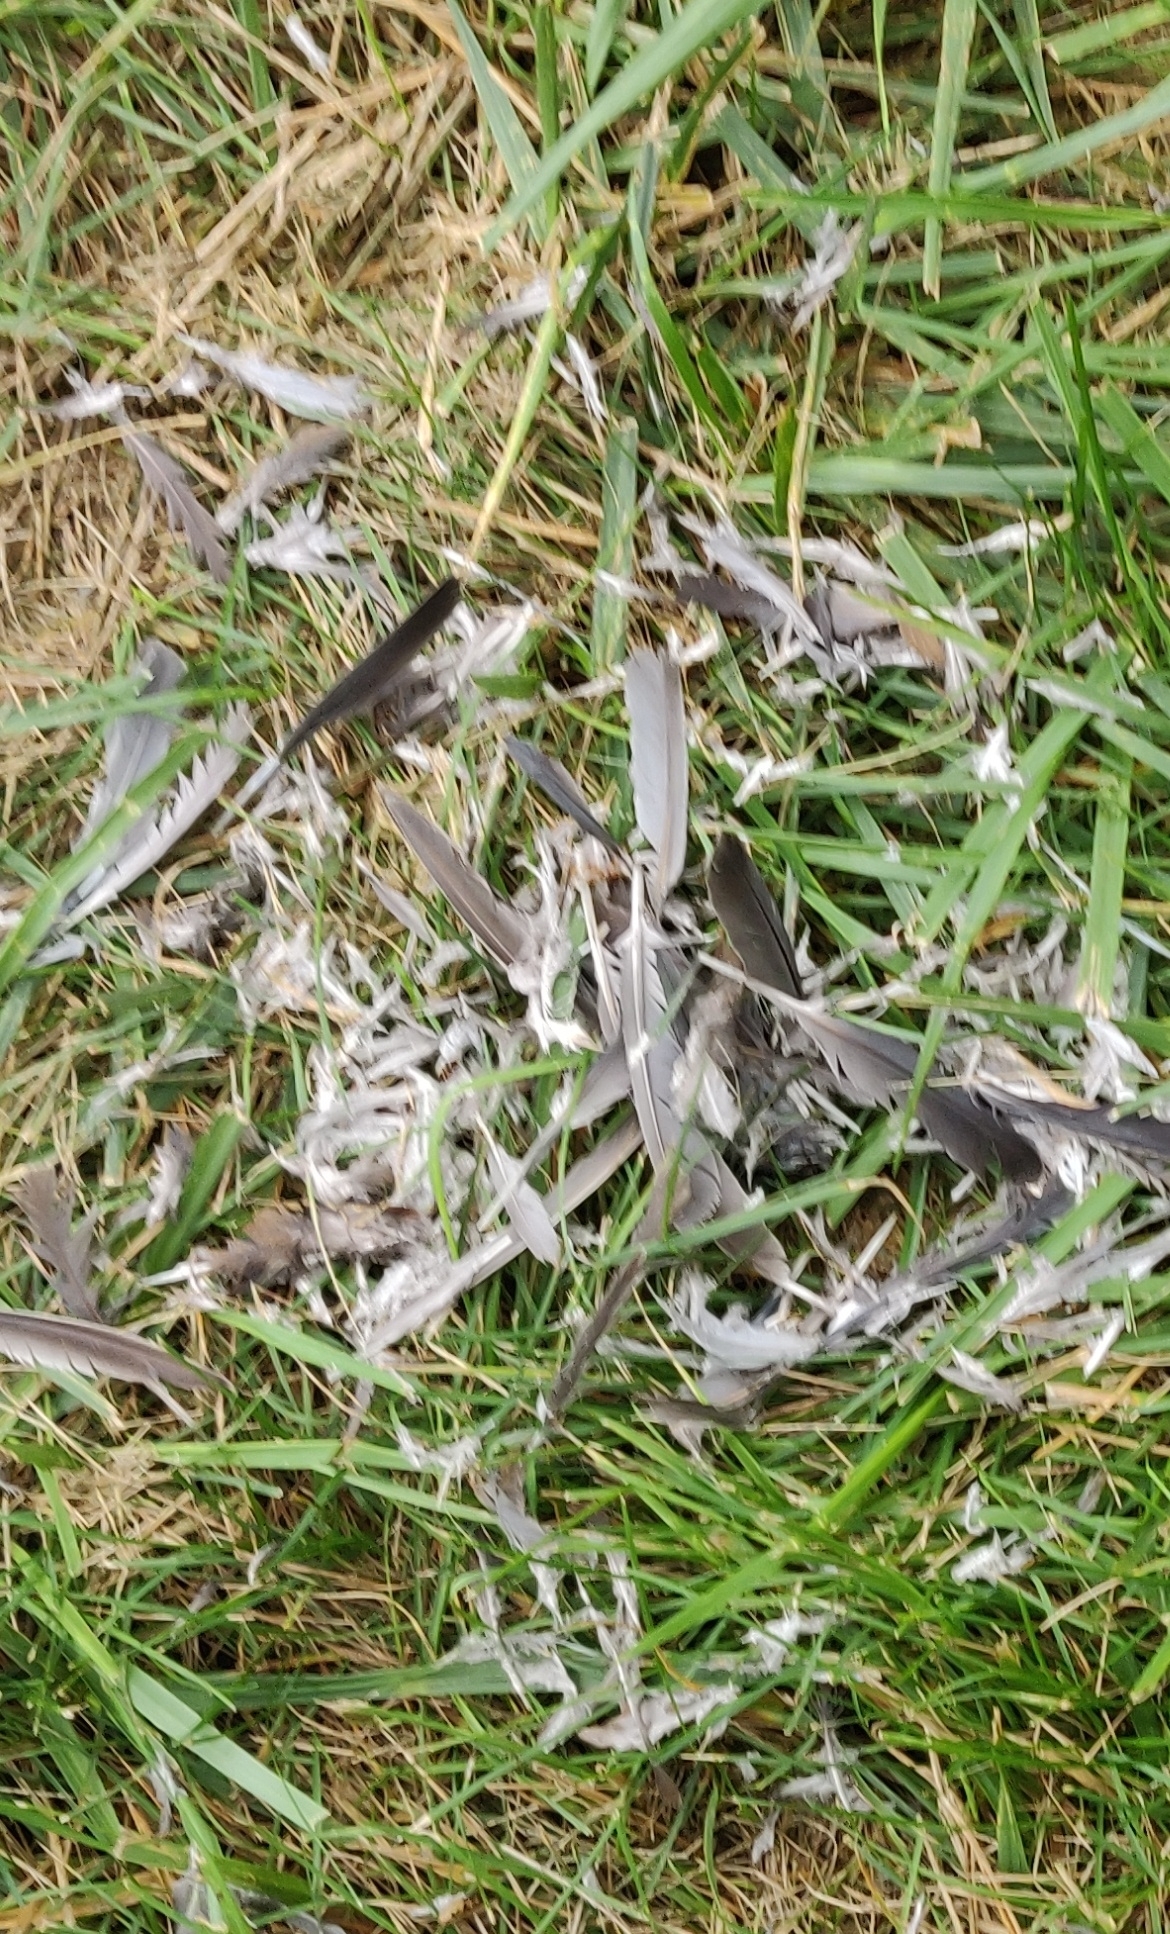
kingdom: Animalia
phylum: Chordata
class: Aves
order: Columbiformes
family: Columbidae
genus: Zenaida
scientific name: Zenaida macroura
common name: Mourning dove
